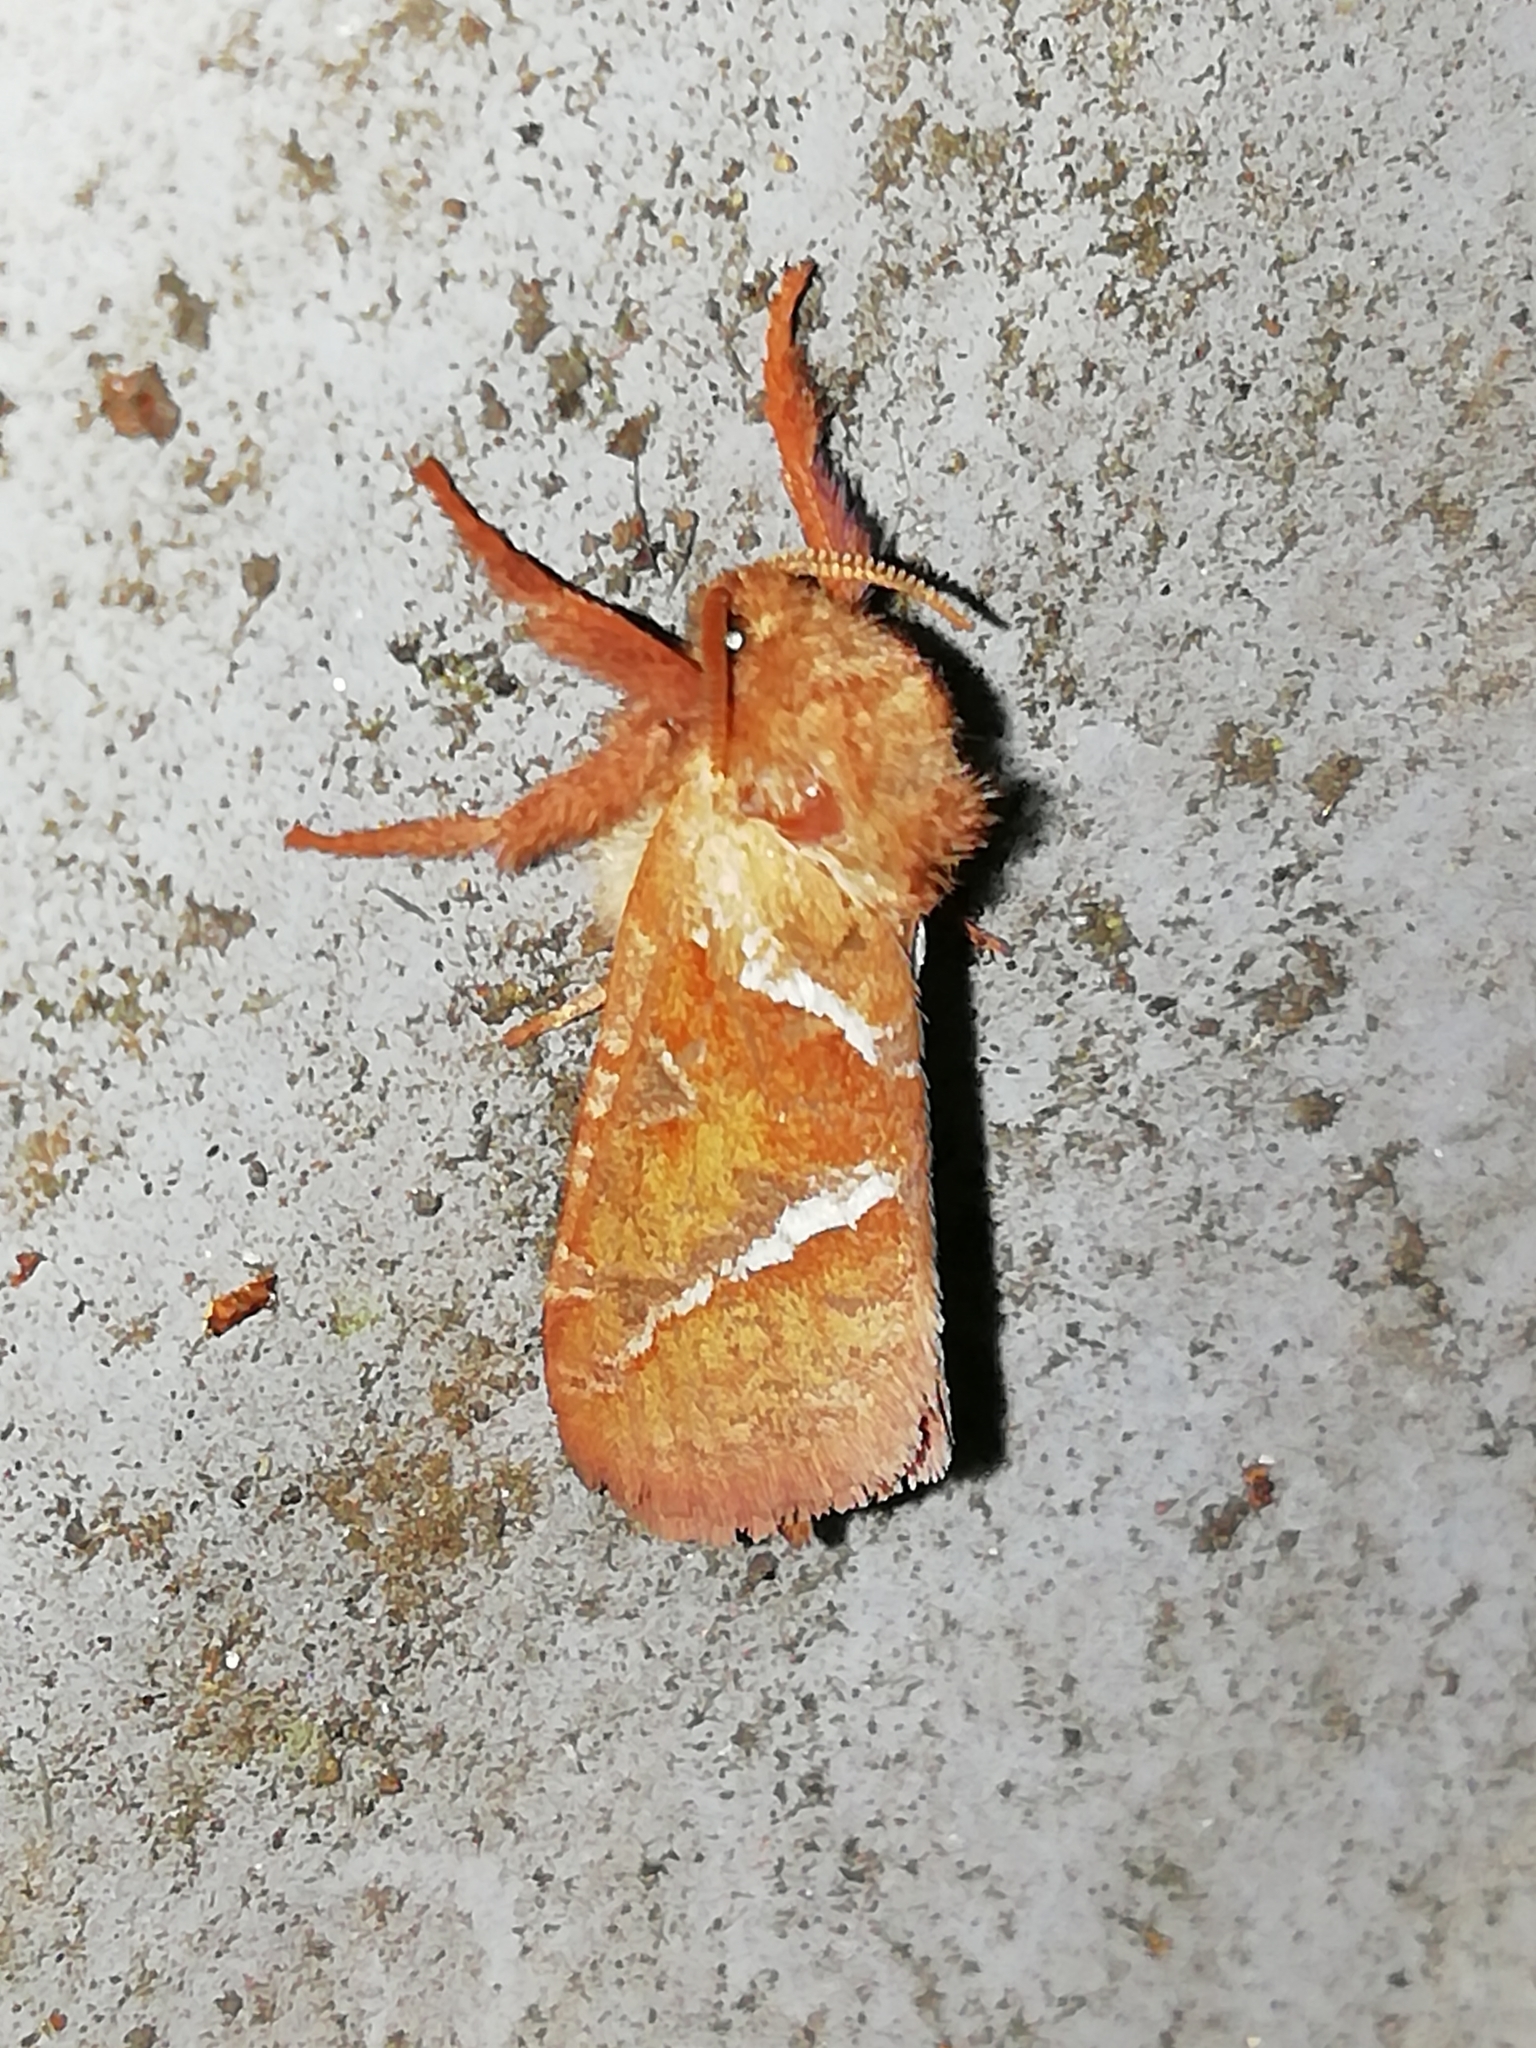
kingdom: Animalia
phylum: Arthropoda
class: Insecta
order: Lepidoptera
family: Hepialidae
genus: Triodia
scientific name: Triodia sylvina
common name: Orange swift
